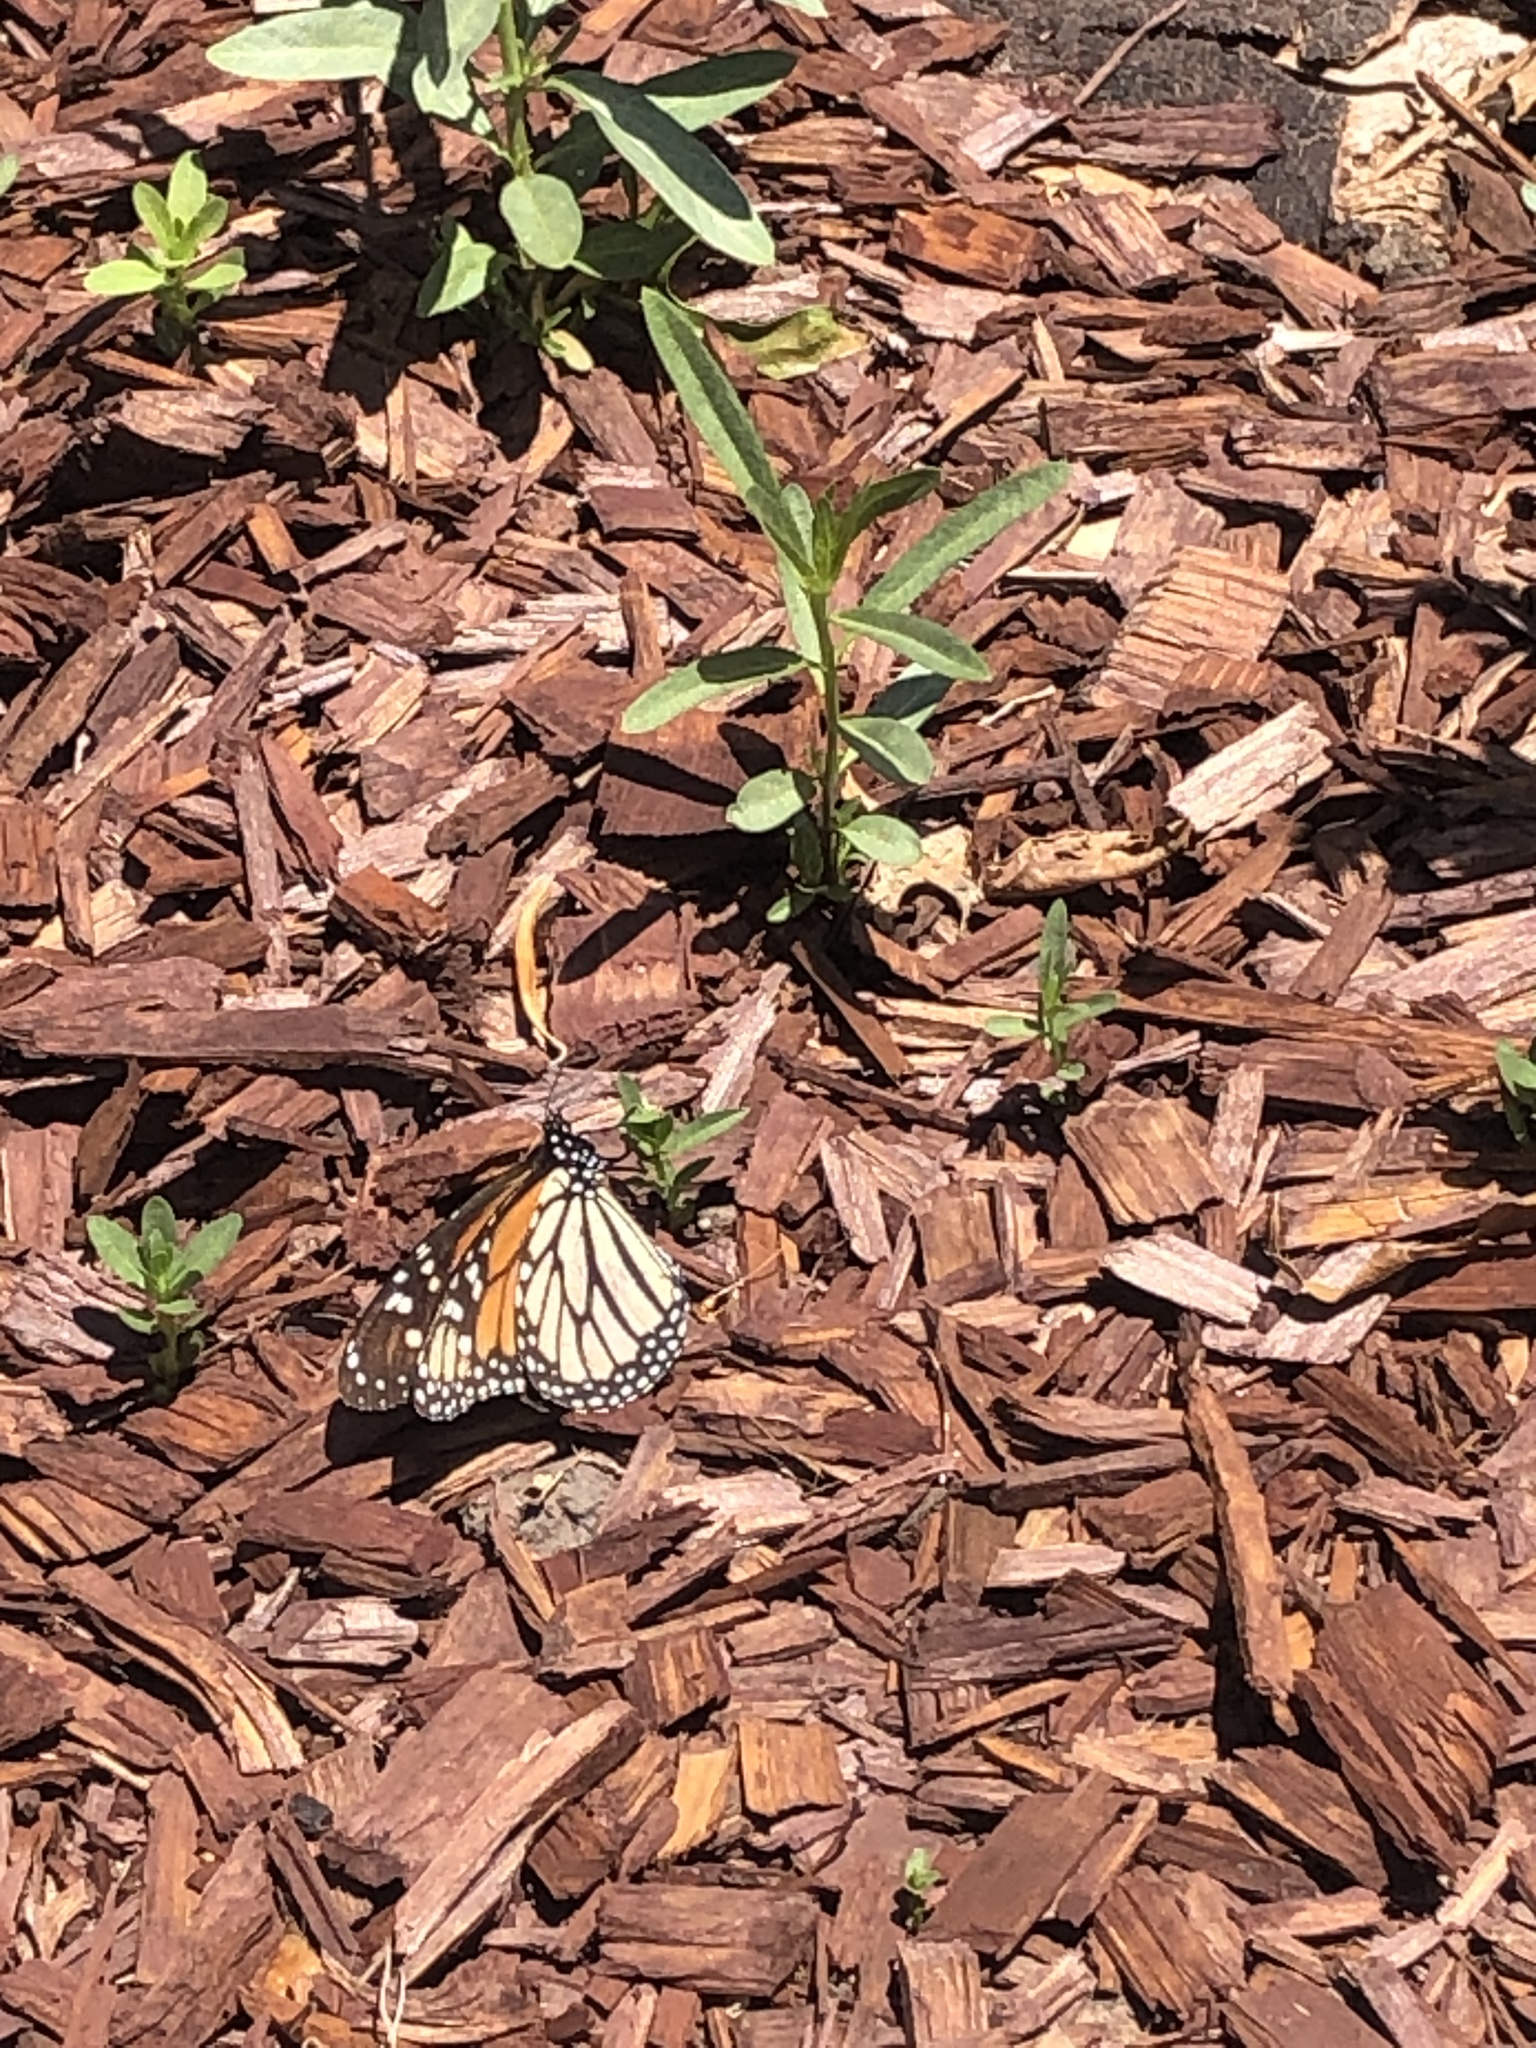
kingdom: Animalia
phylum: Arthropoda
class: Insecta
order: Lepidoptera
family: Nymphalidae
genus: Danaus
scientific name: Danaus plexippus
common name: Monarch
